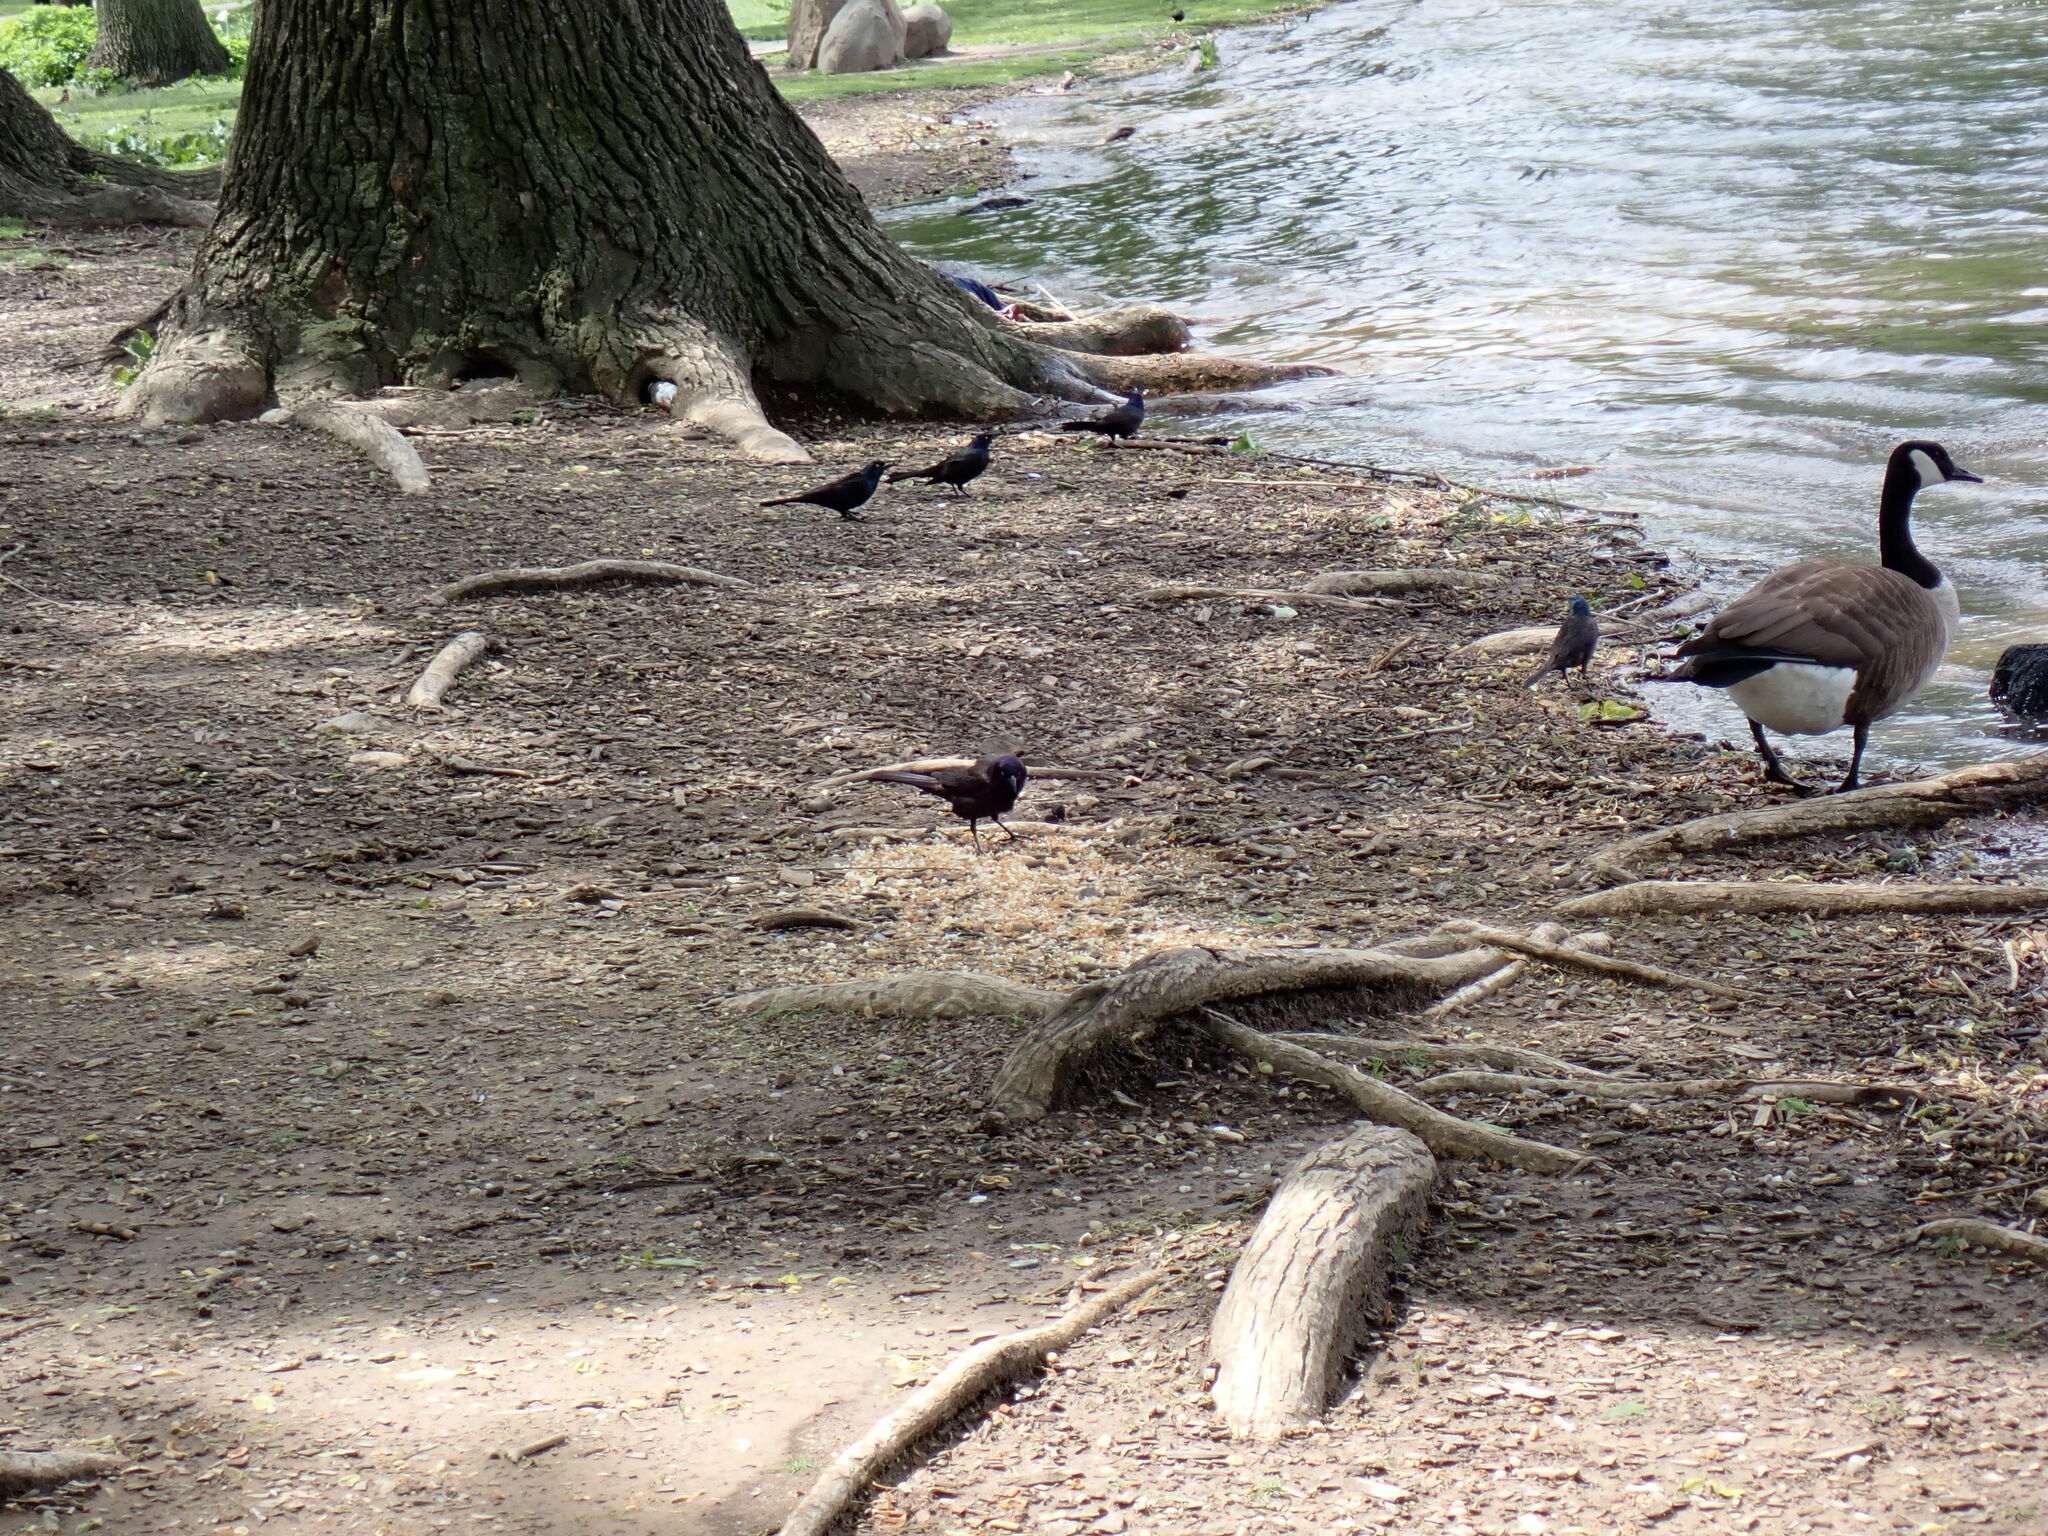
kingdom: Animalia
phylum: Chordata
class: Aves
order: Passeriformes
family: Icteridae
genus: Quiscalus
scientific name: Quiscalus quiscula
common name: Common grackle
